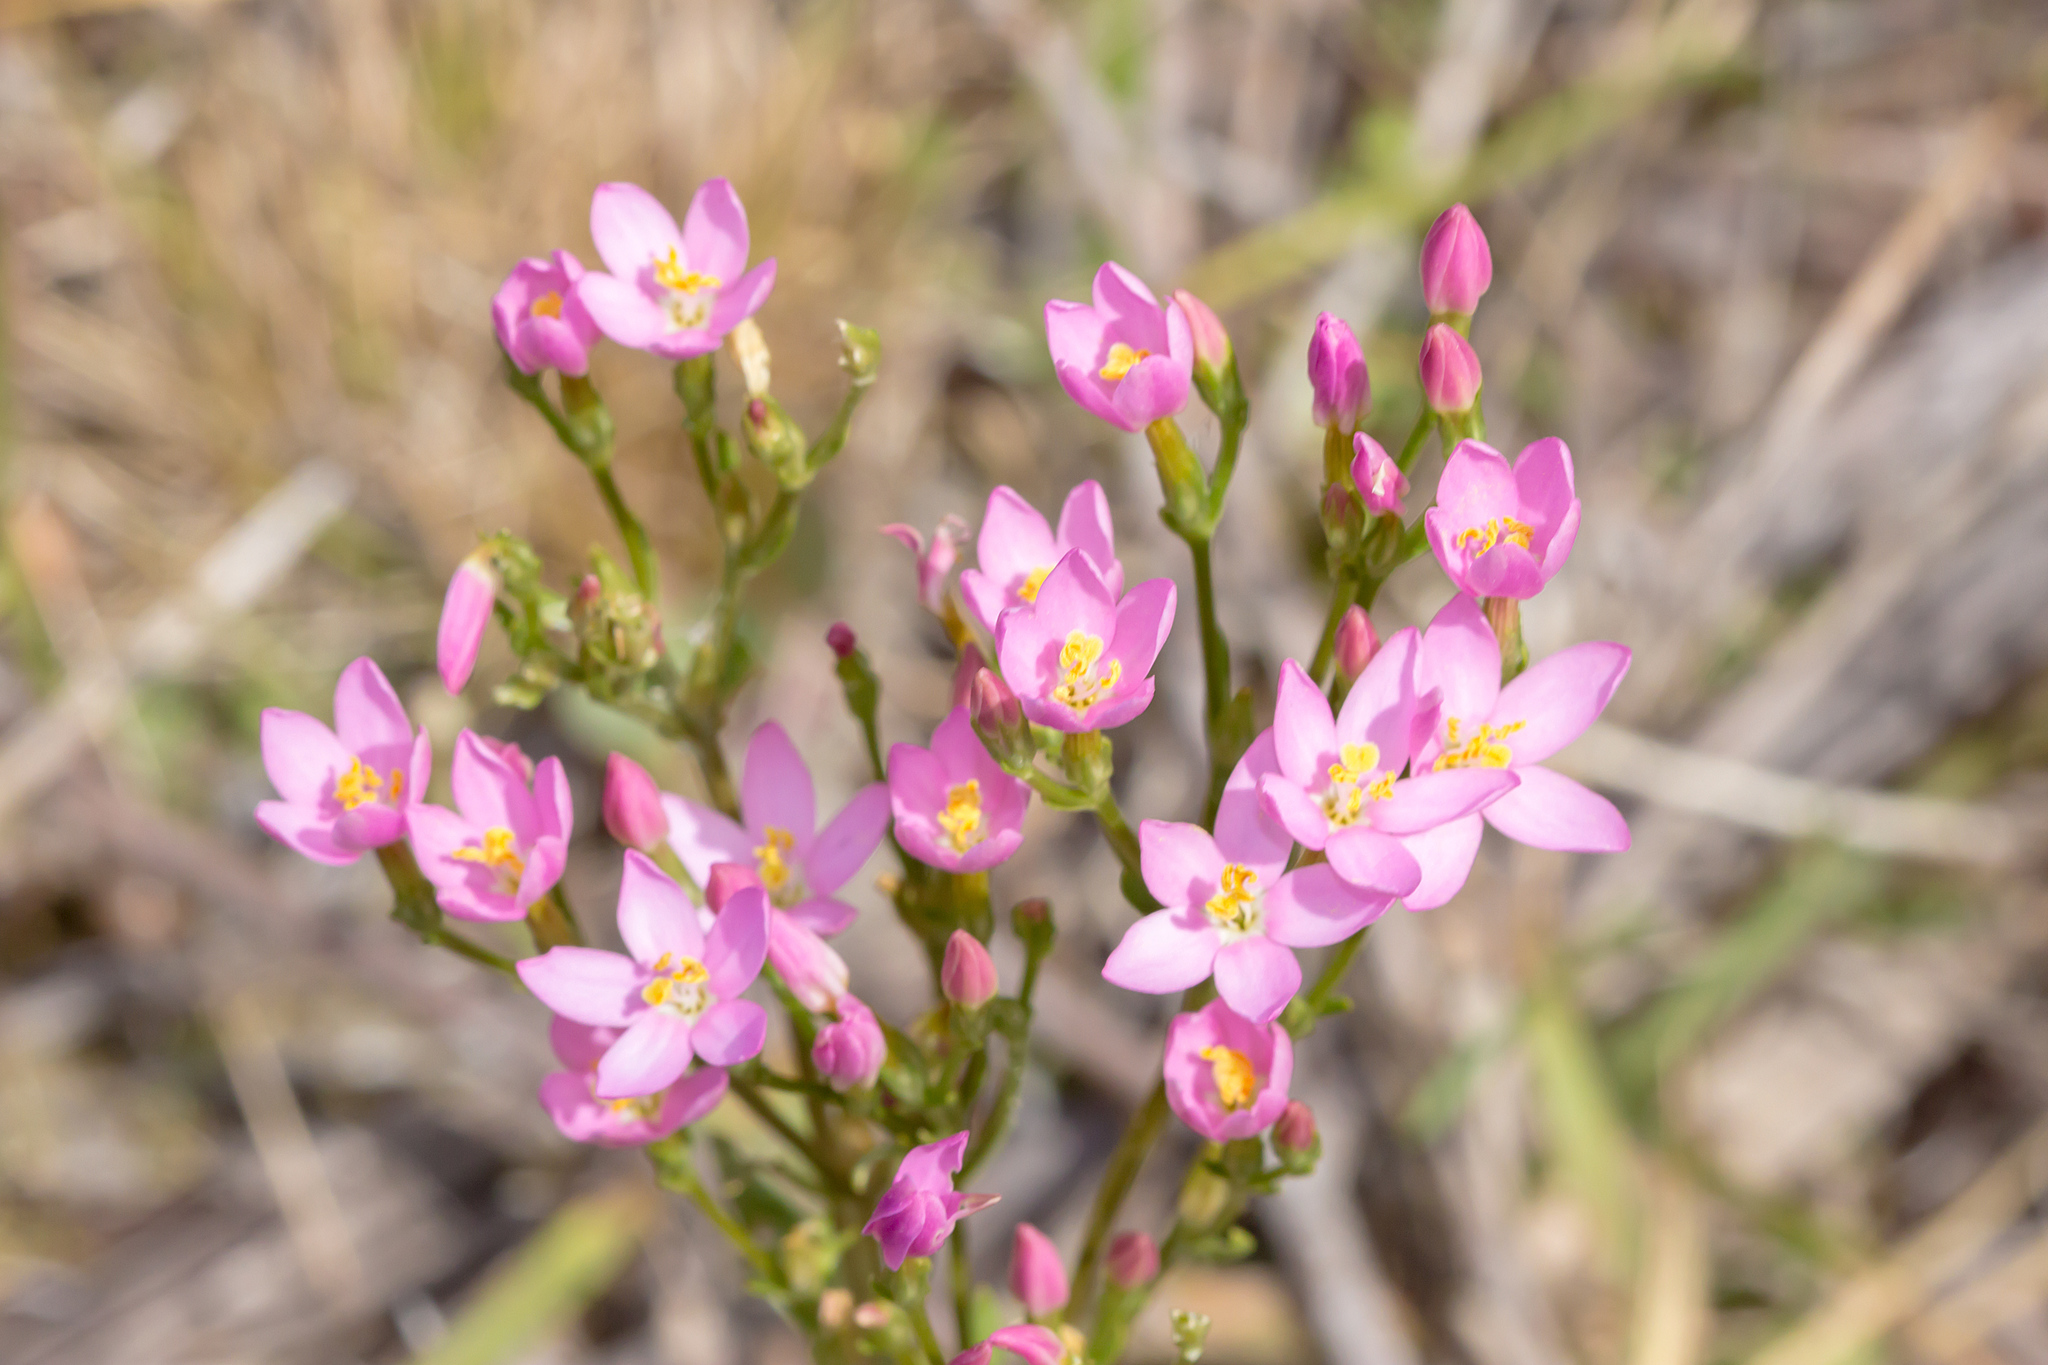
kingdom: Plantae
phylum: Tracheophyta
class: Magnoliopsida
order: Gentianales
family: Gentianaceae
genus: Centaurium
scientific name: Centaurium erythraea
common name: Common centaury
